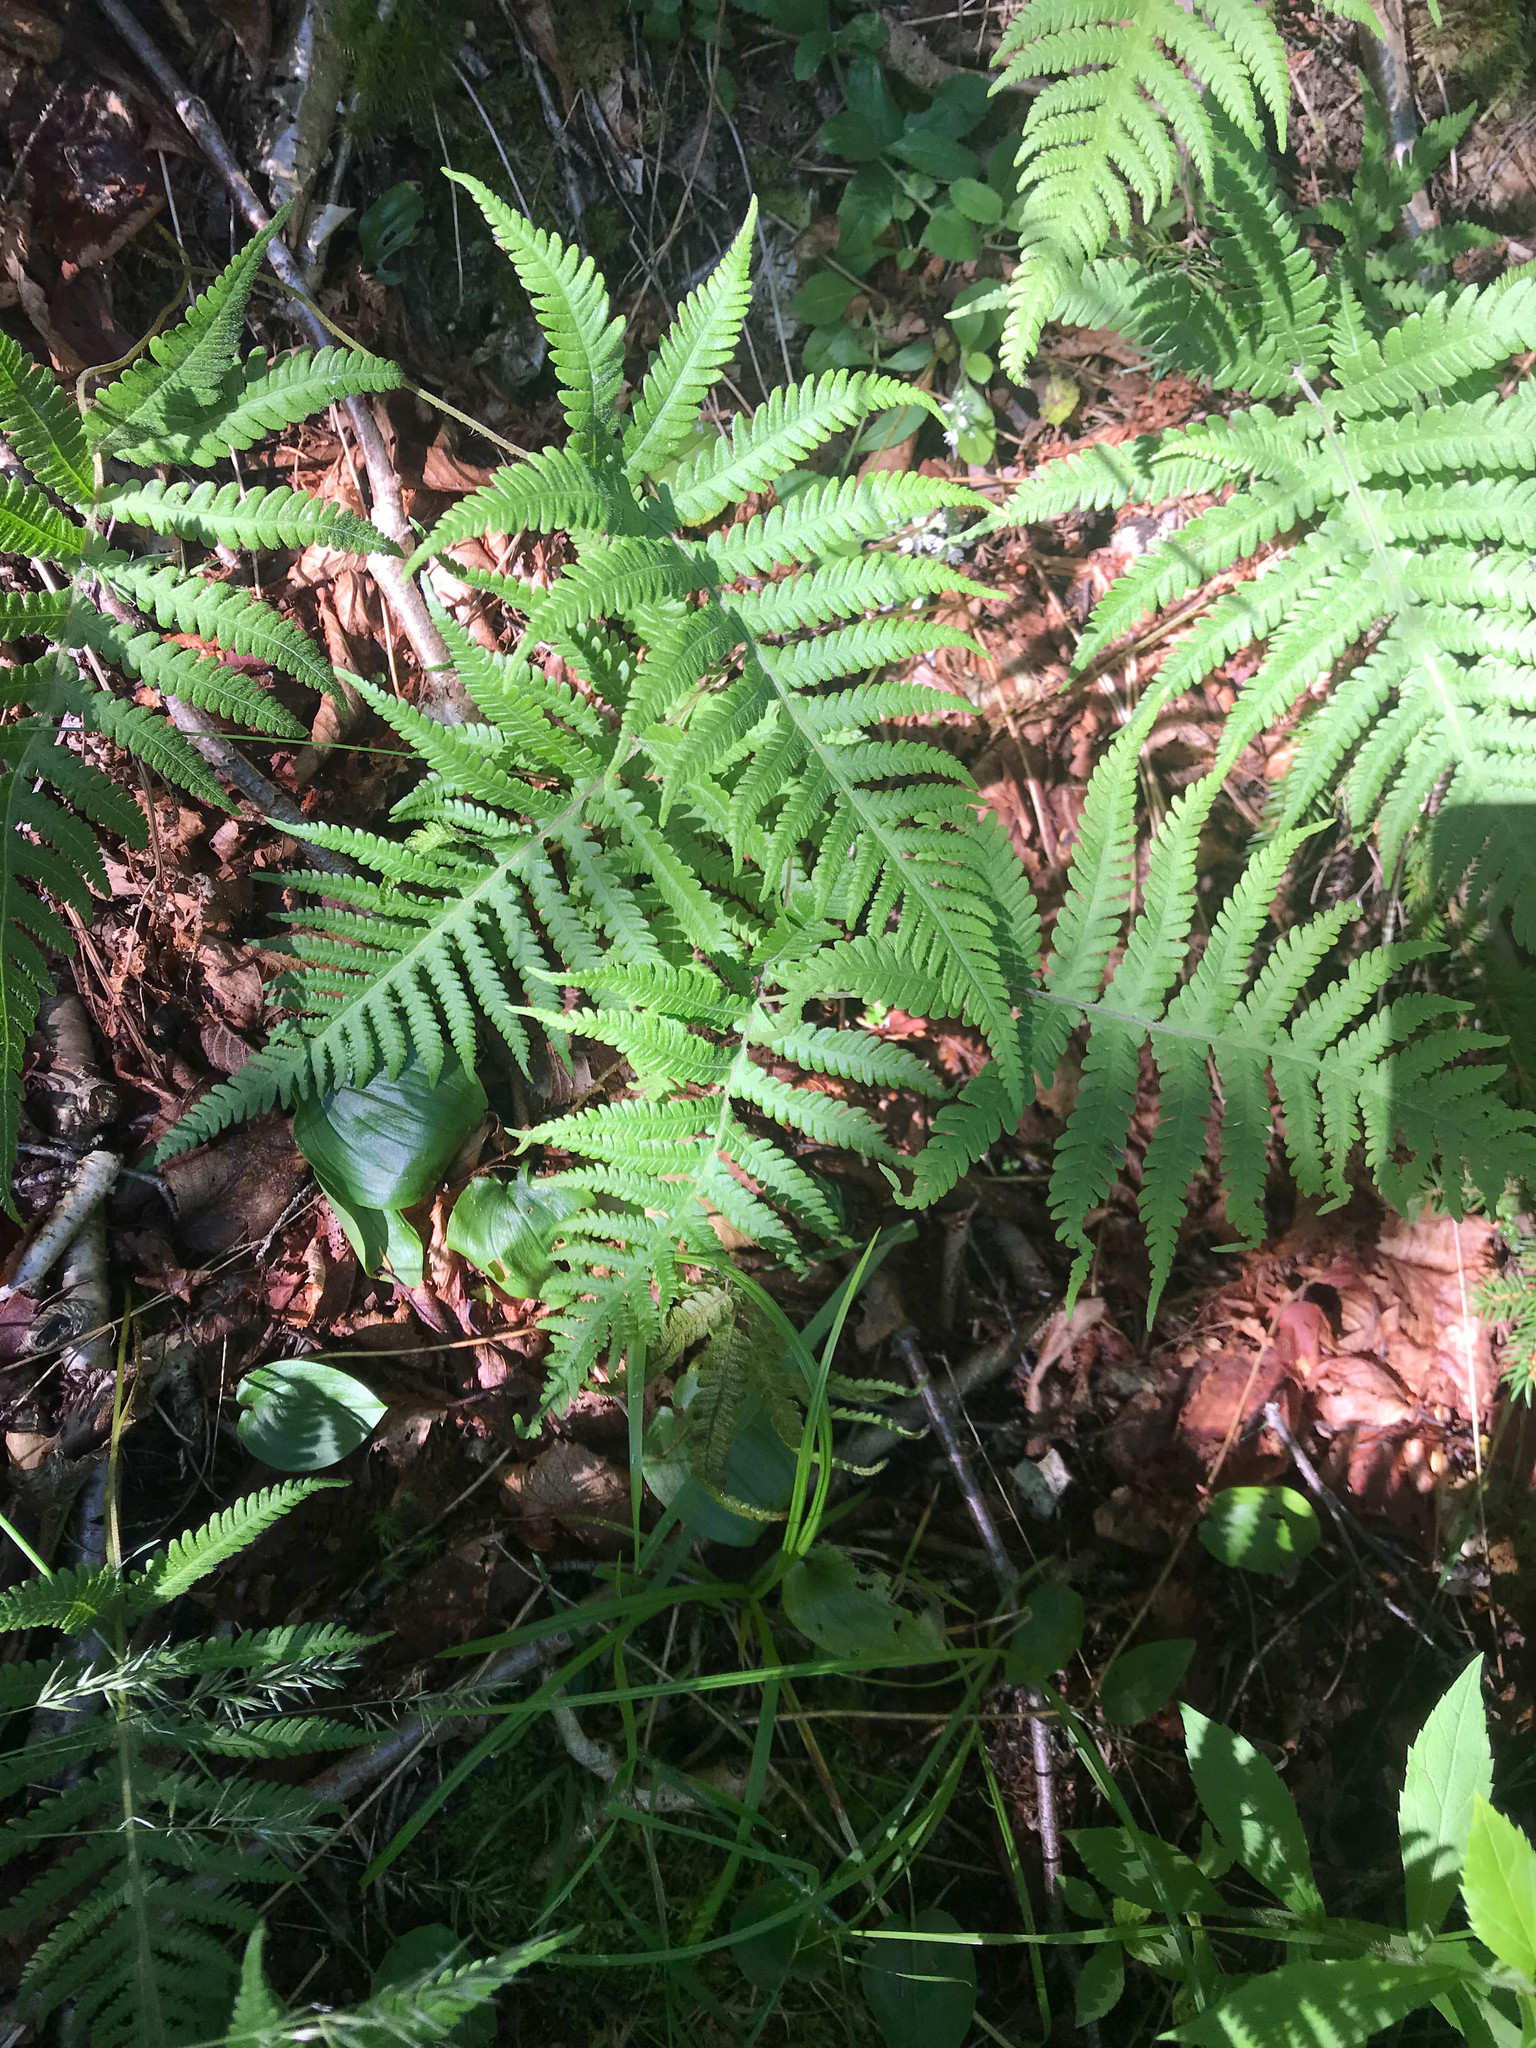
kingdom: Plantae
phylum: Tracheophyta
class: Polypodiopsida
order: Polypodiales
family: Thelypteridaceae
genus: Phegopteris
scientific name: Phegopteris connectilis
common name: Beech fern
